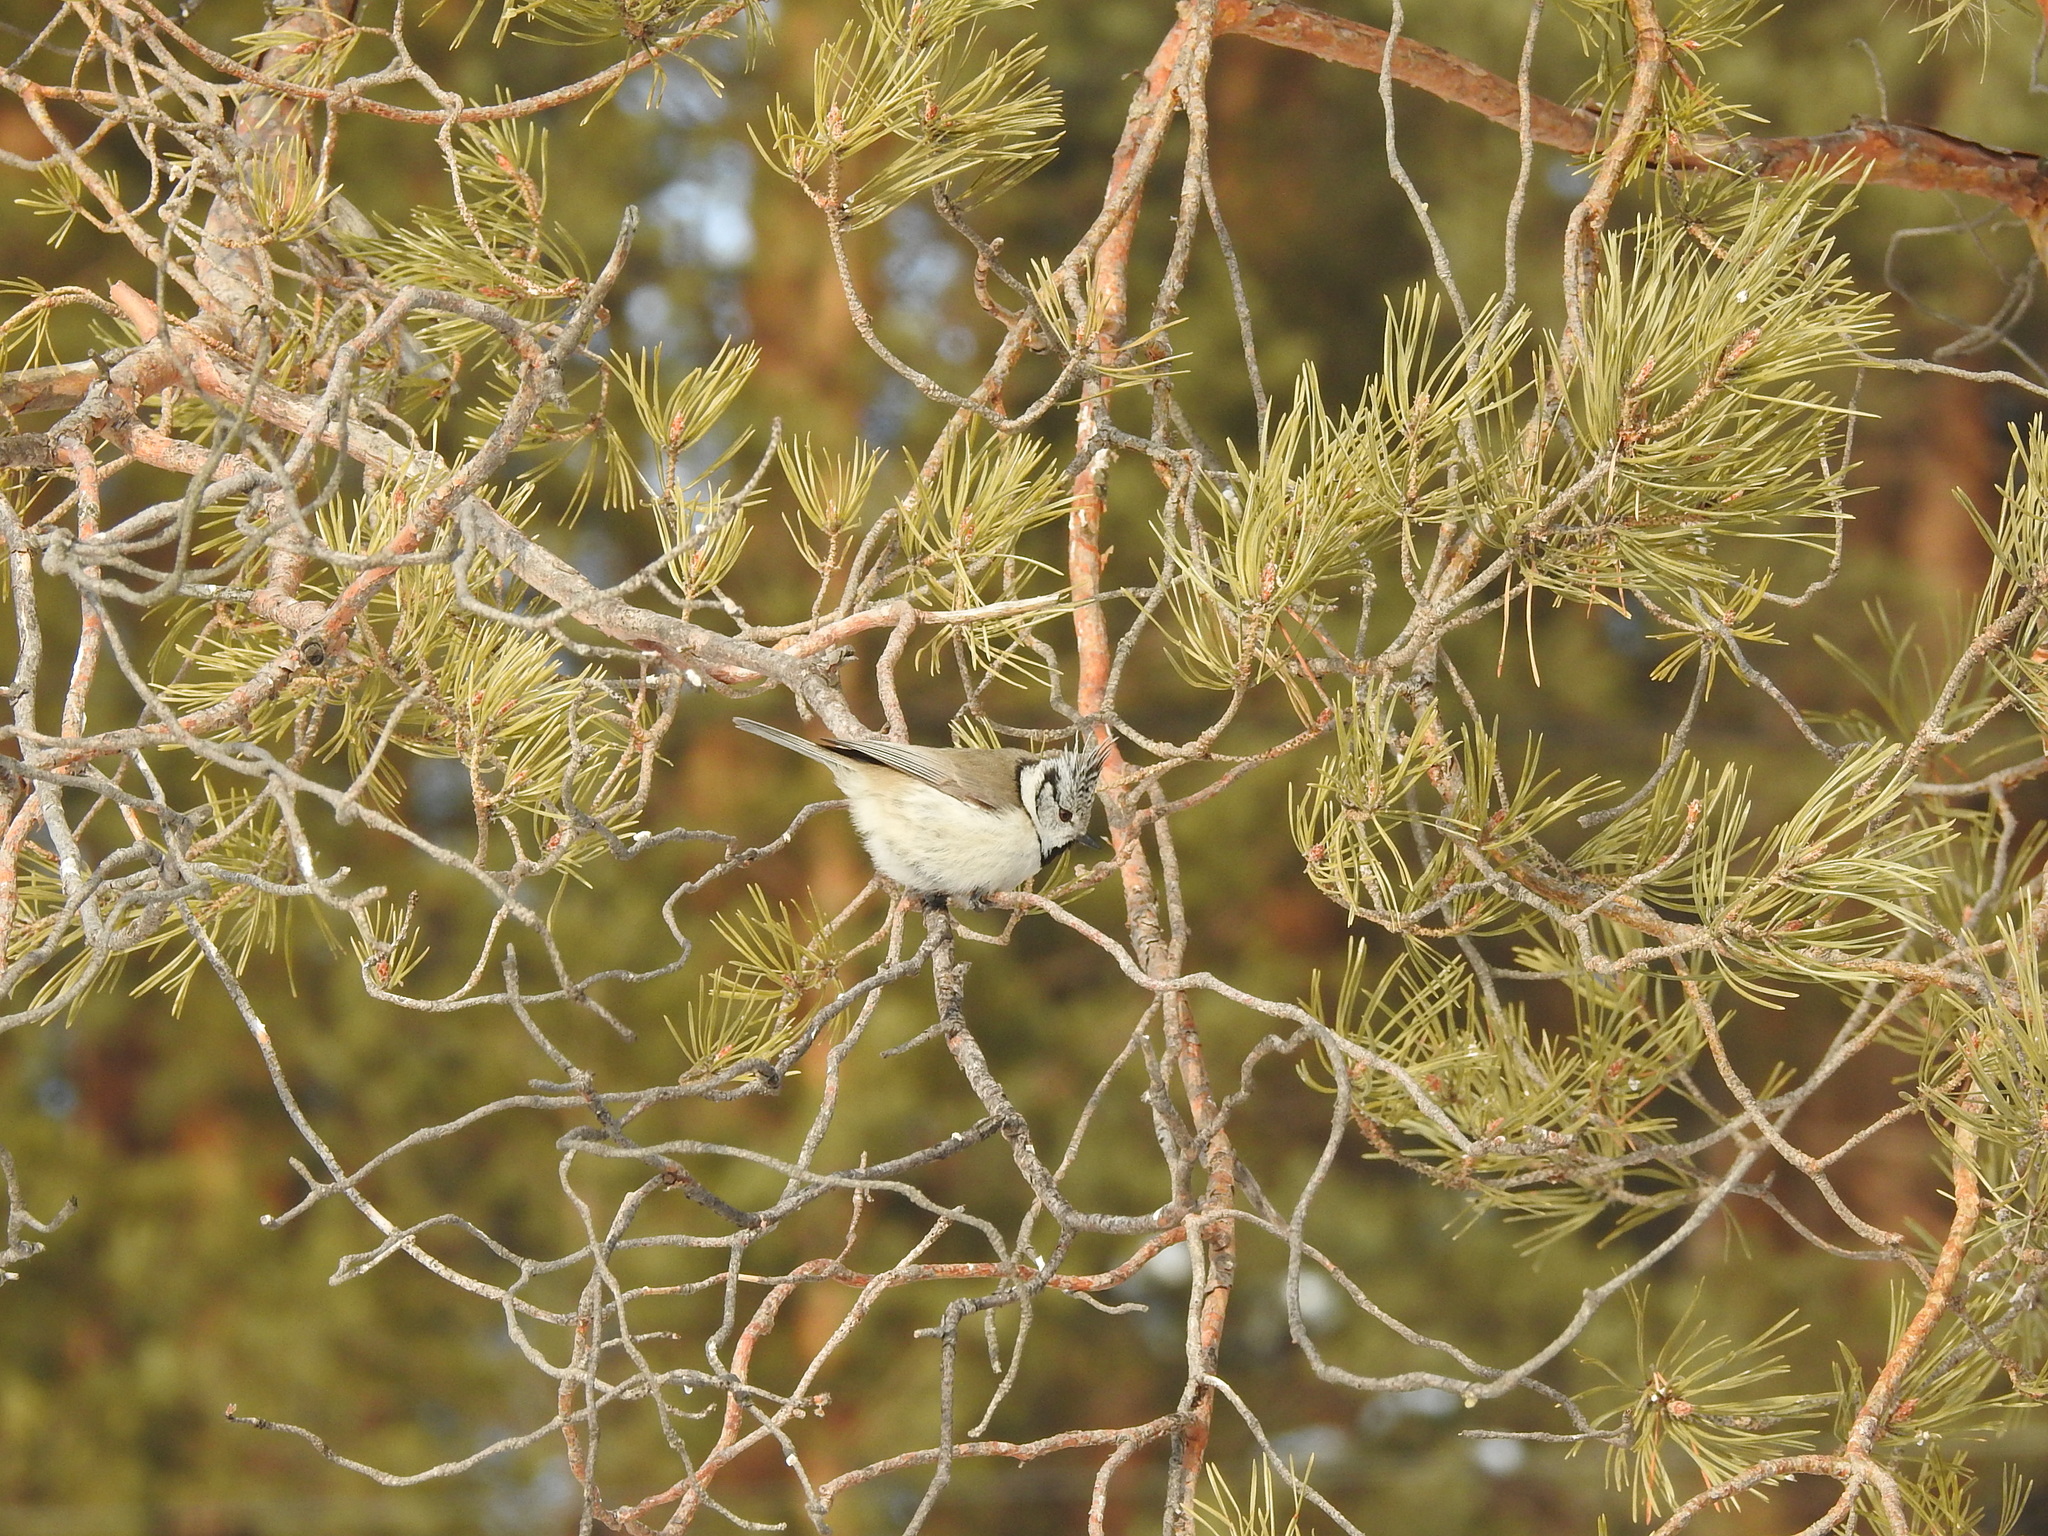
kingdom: Animalia
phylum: Chordata
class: Aves
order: Passeriformes
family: Paridae
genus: Lophophanes
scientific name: Lophophanes cristatus
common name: European crested tit
